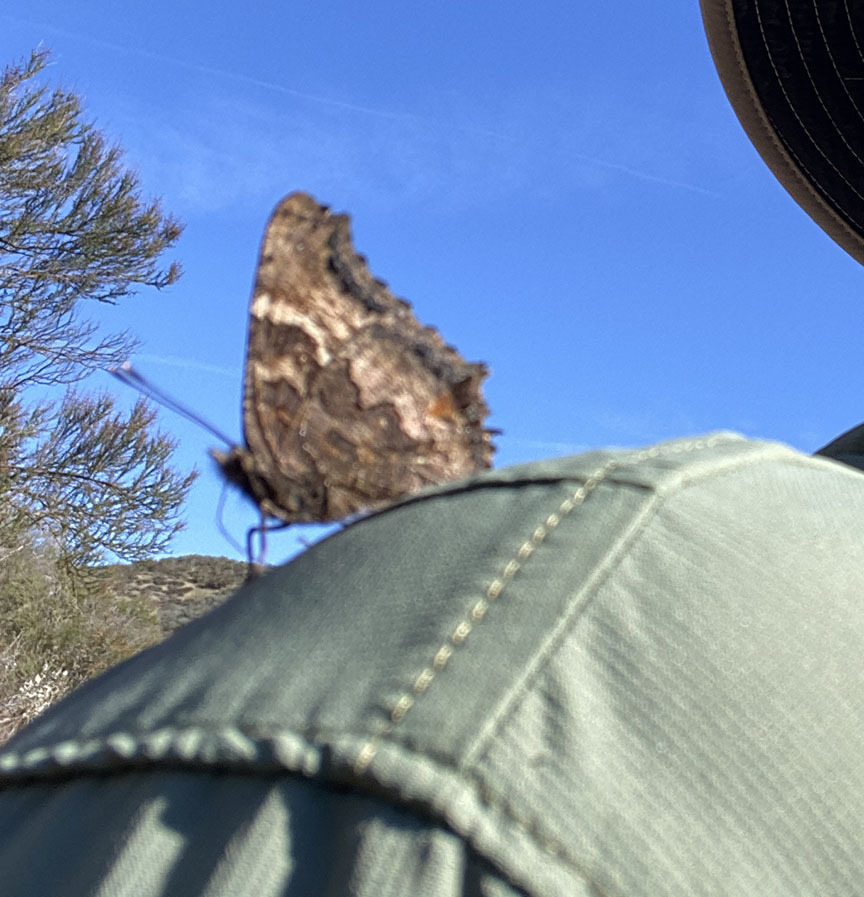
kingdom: Animalia
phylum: Arthropoda
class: Insecta
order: Lepidoptera
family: Nymphalidae
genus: Nymphalis
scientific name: Nymphalis californica
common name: California tortoiseshell
